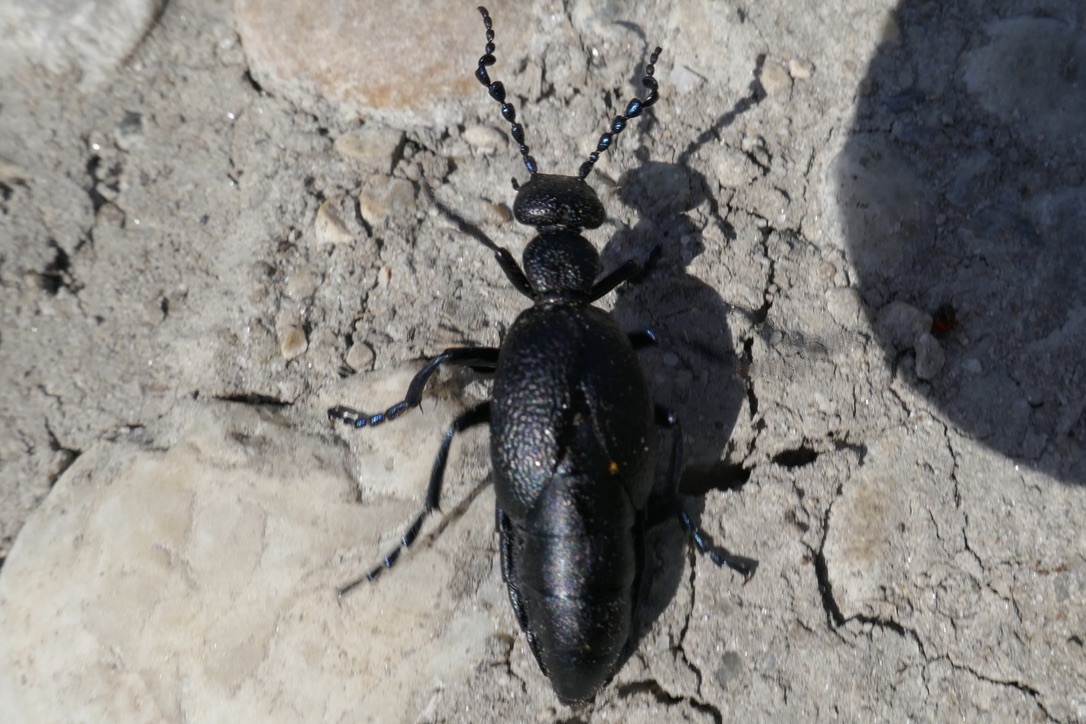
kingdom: Animalia
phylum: Arthropoda
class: Insecta
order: Coleoptera
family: Meloidae
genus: Meloe
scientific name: Meloe proscarabaeus
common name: Black oil-beetle
